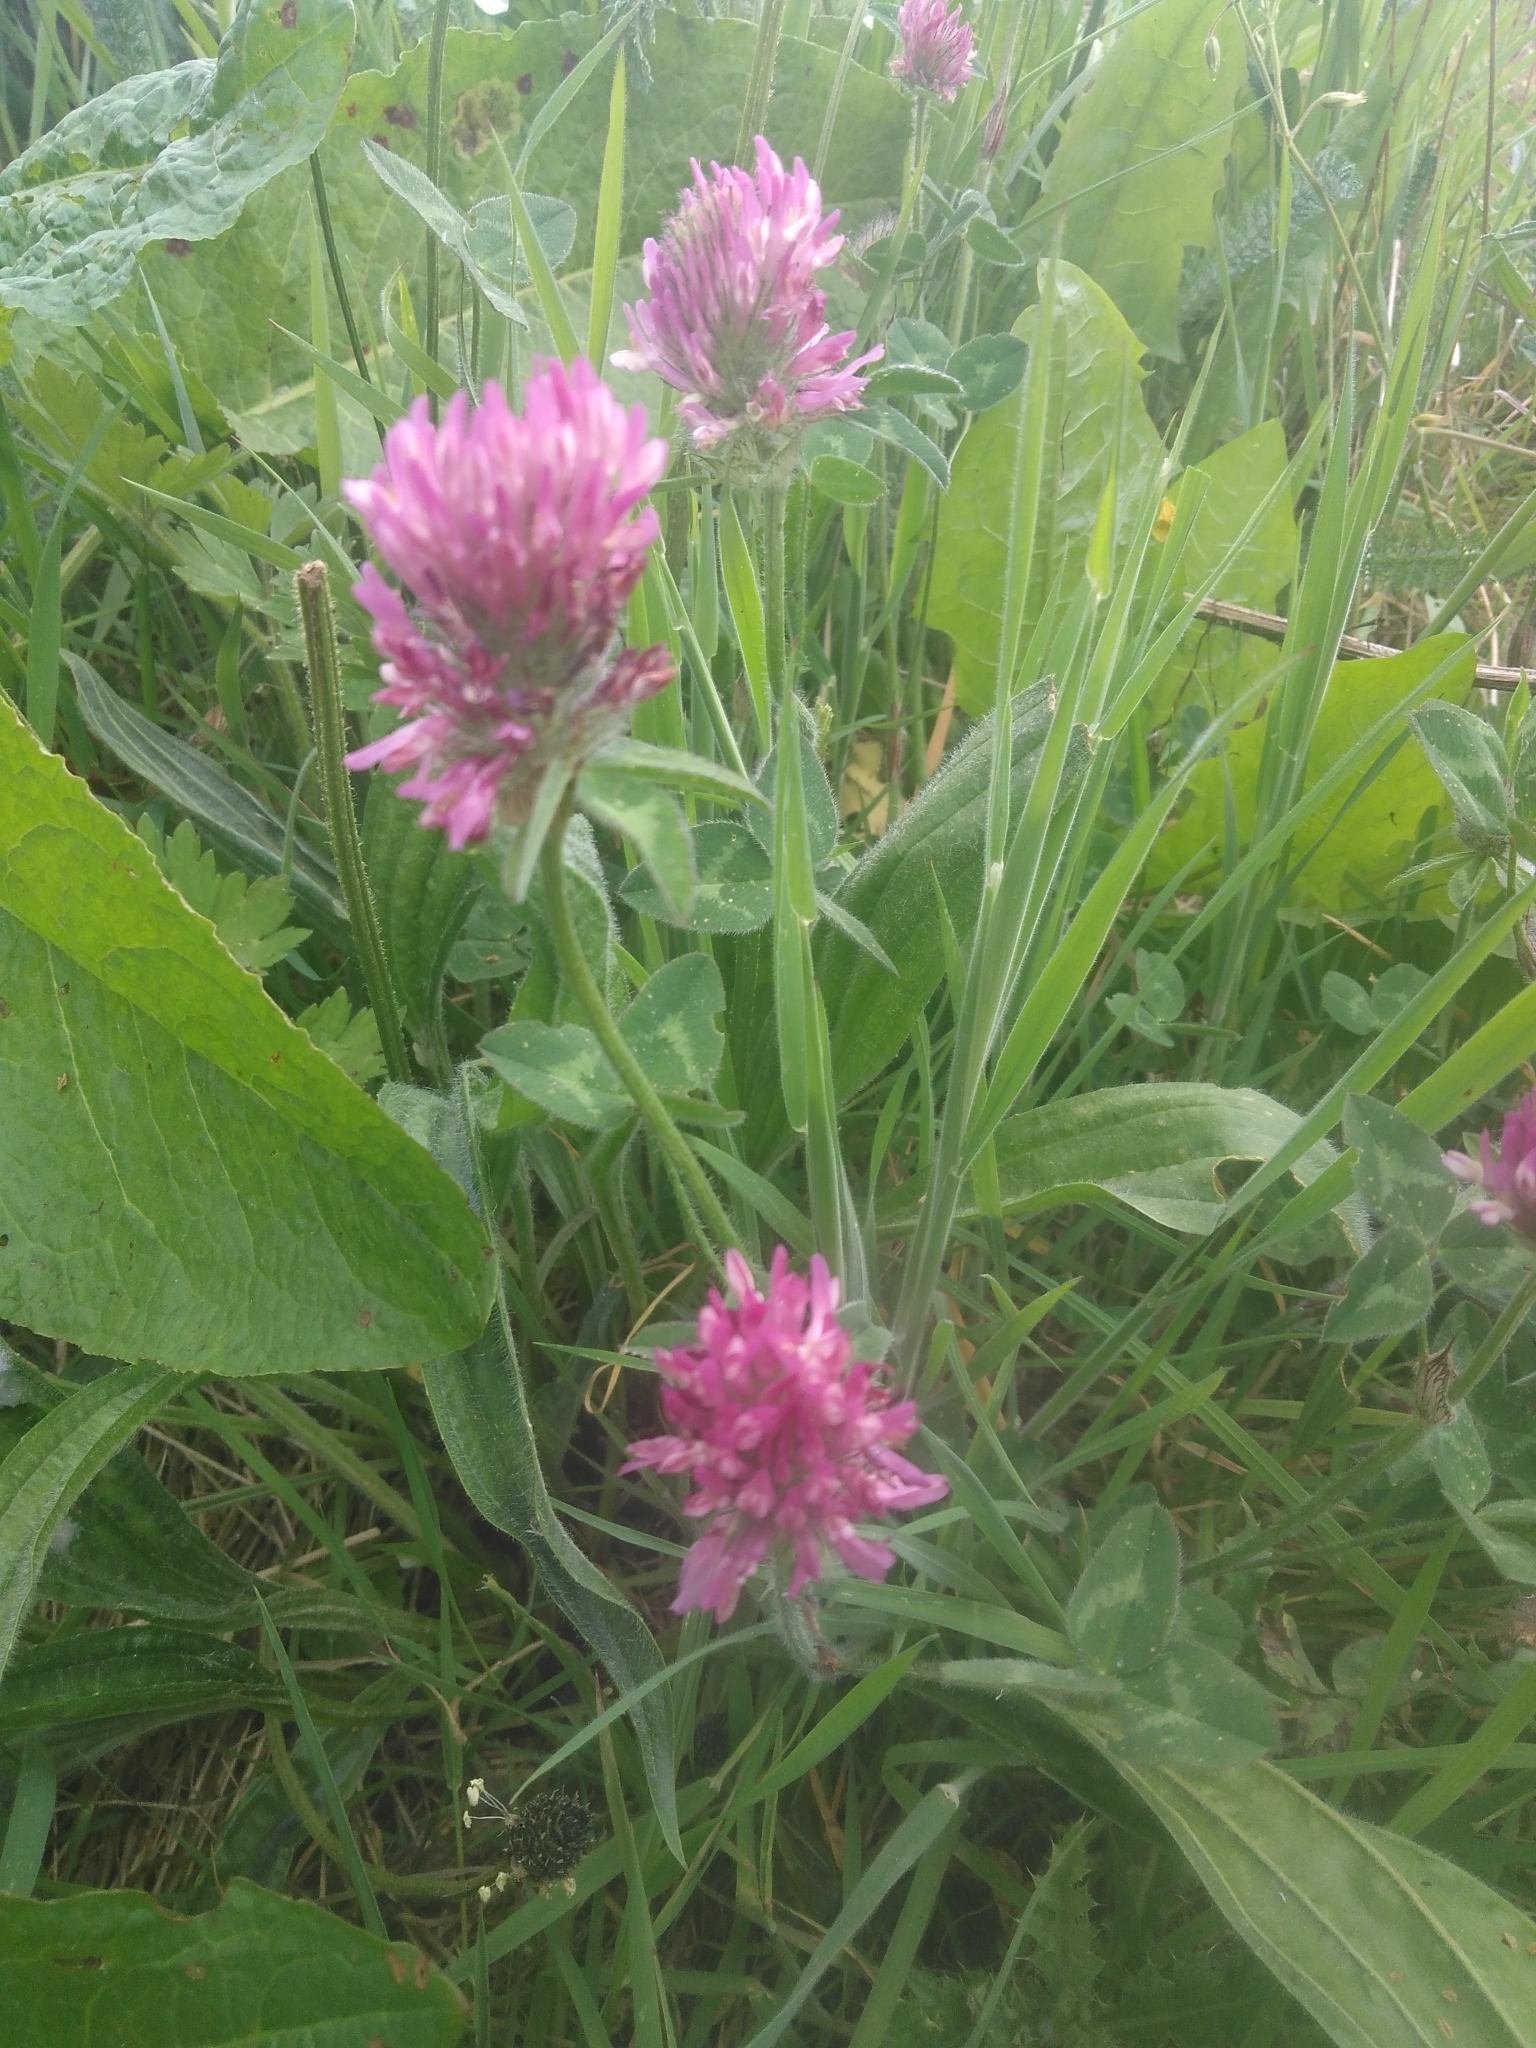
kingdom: Plantae
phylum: Tracheophyta
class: Magnoliopsida
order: Fabales
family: Fabaceae
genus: Trifolium
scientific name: Trifolium pratense
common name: Red clover
